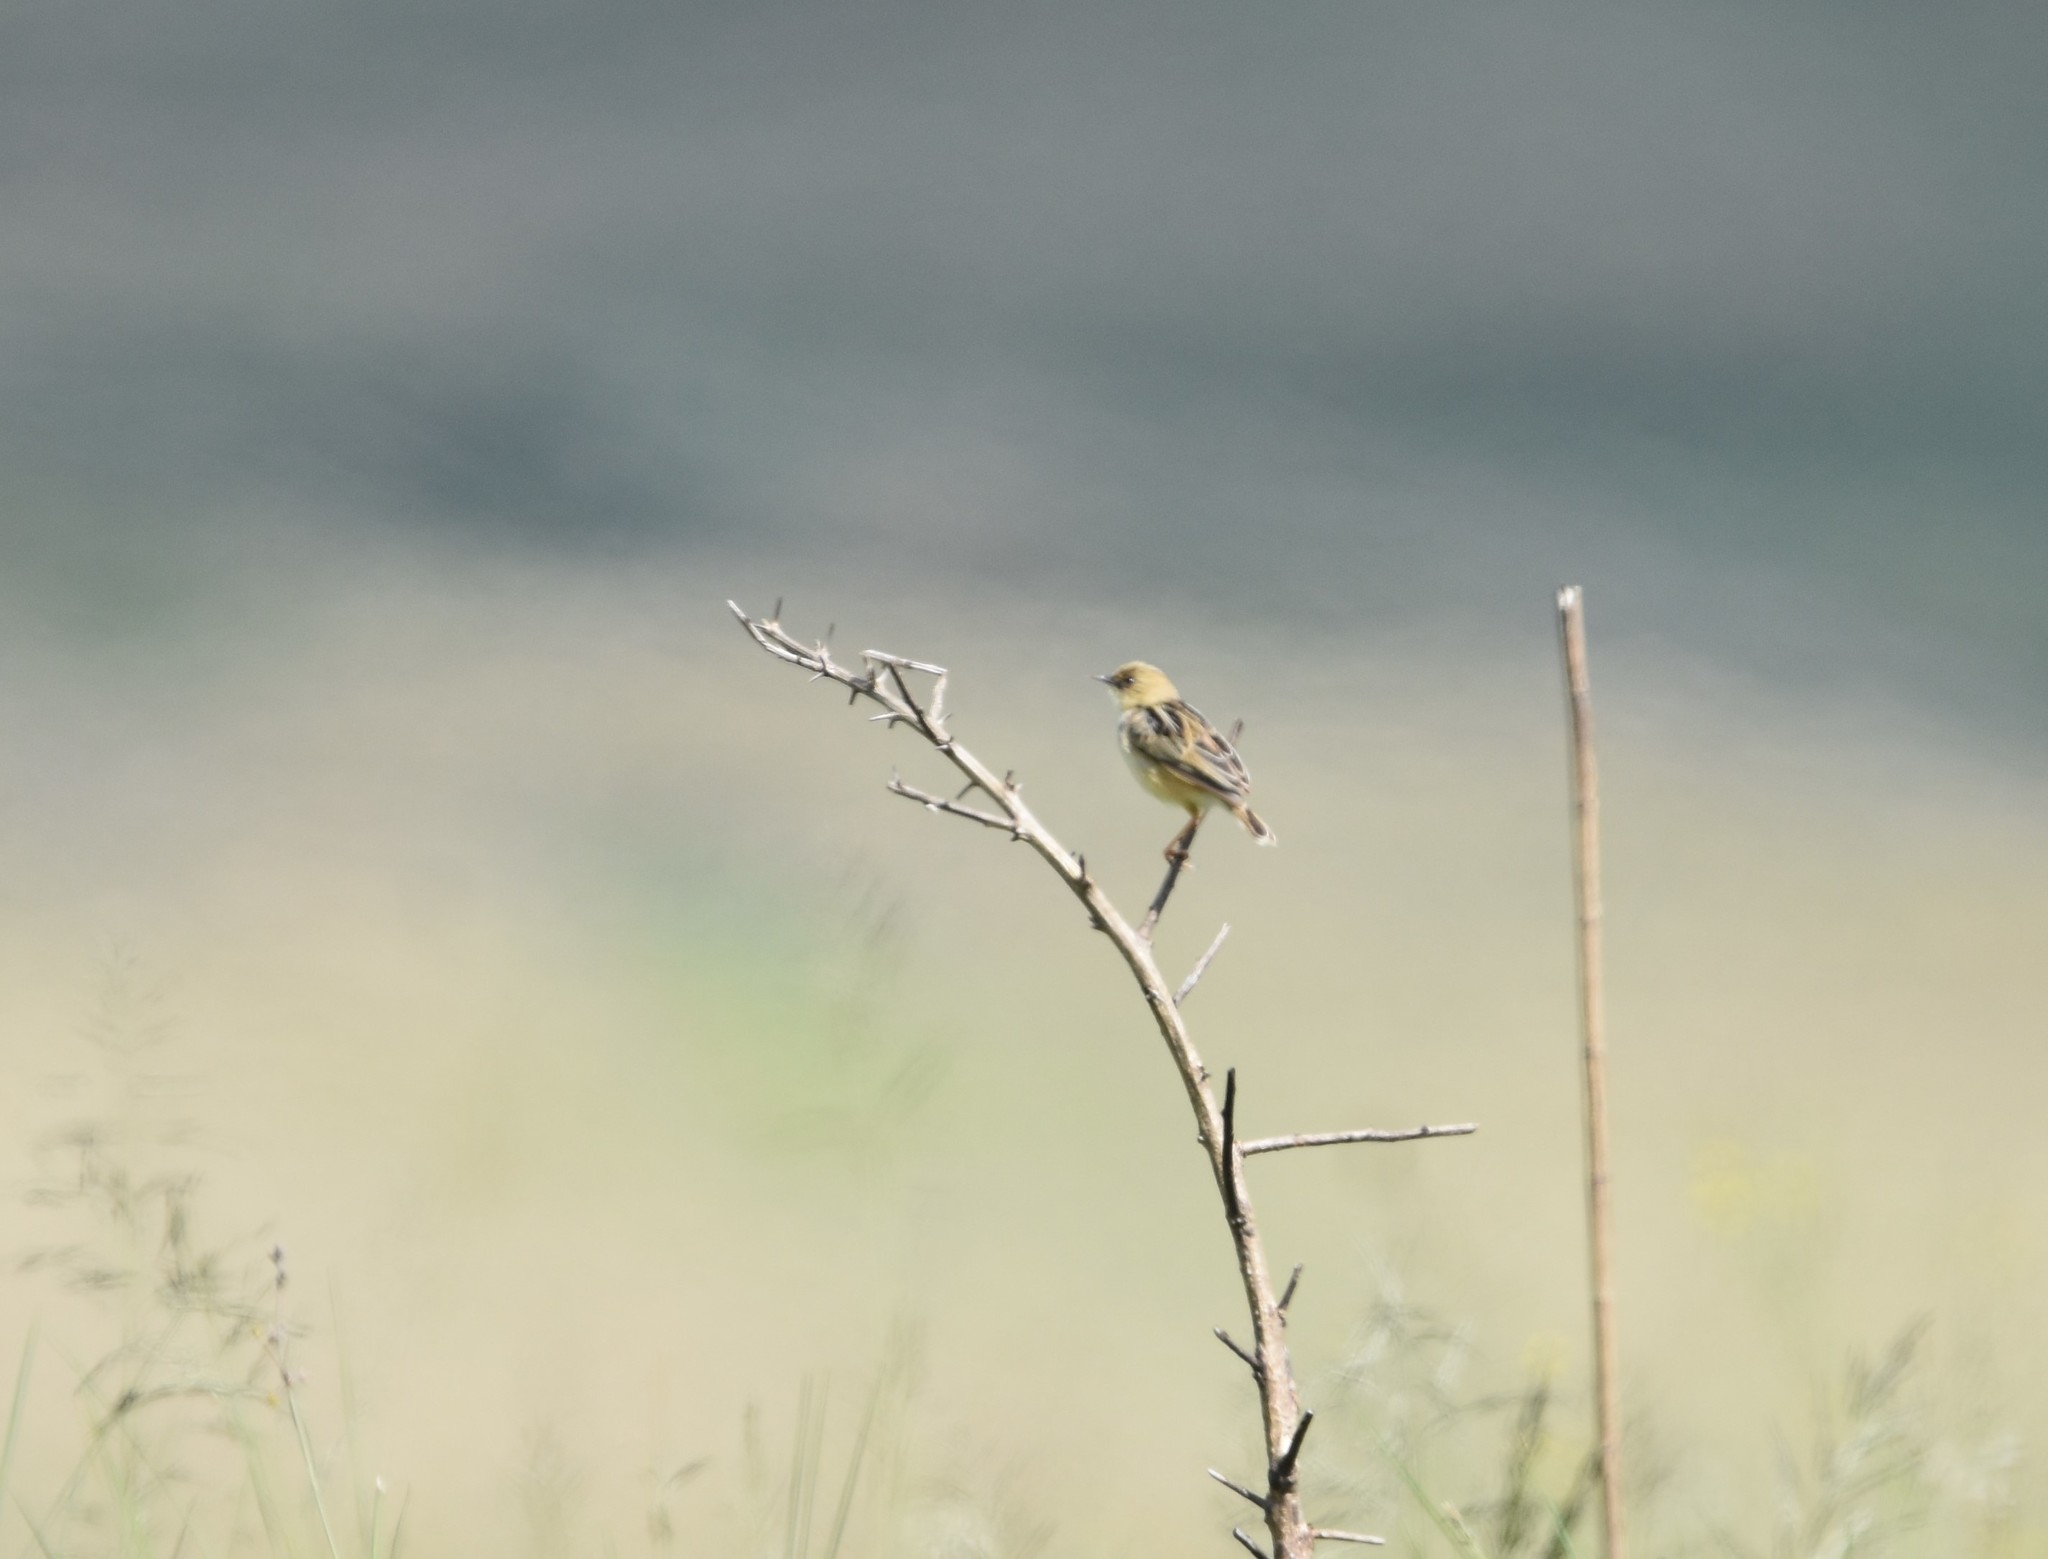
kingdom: Animalia
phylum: Chordata
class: Aves
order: Passeriformes
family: Cisticolidae
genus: Cisticola
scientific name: Cisticola cinnamomeus
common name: Pale-crowned cisticola
